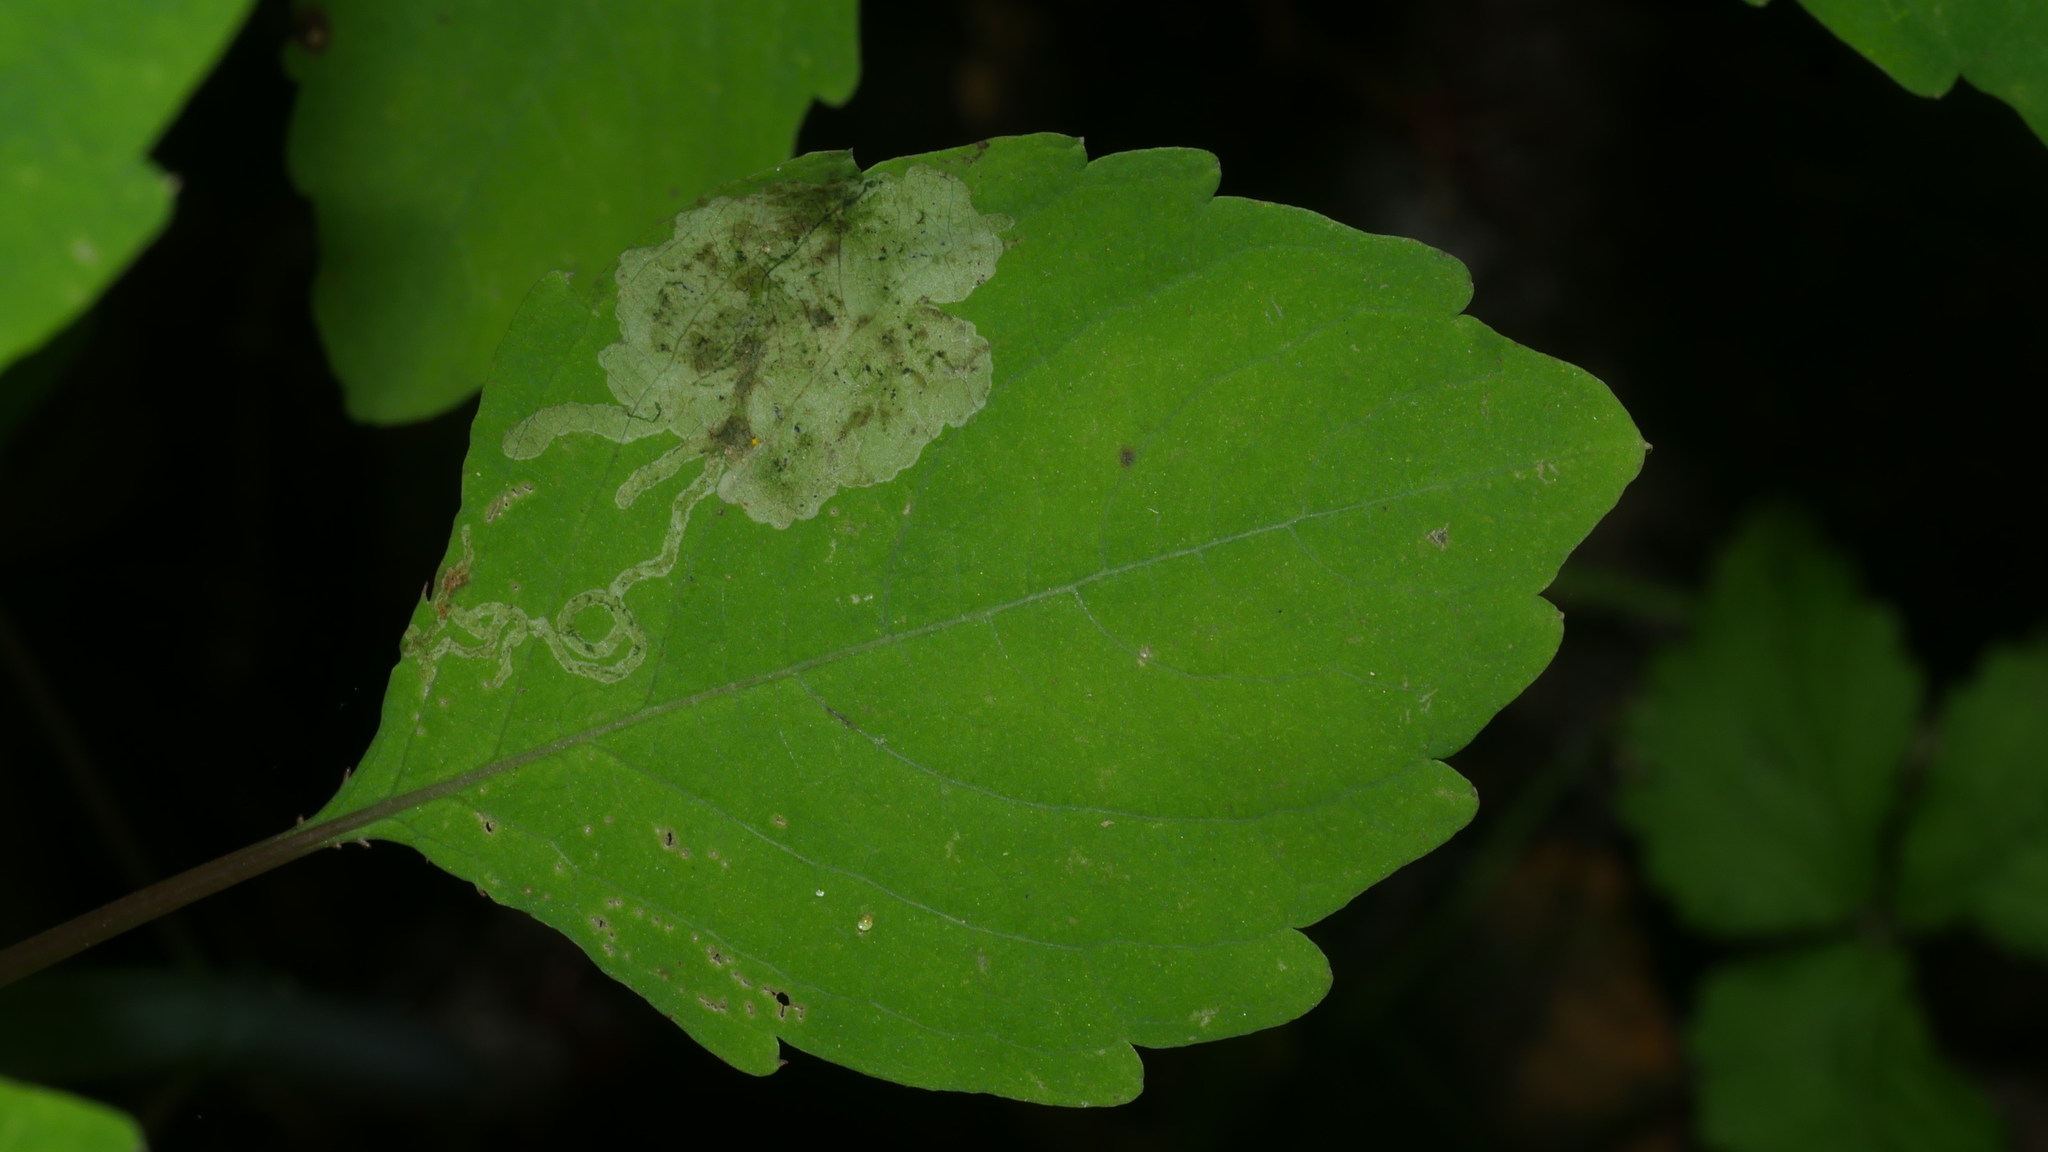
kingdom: Animalia
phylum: Arthropoda
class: Insecta
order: Diptera
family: Agromyzidae
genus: Phytoliriomyza
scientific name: Phytoliriomyza melampyga
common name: Jewelweed leaf-miner fly
